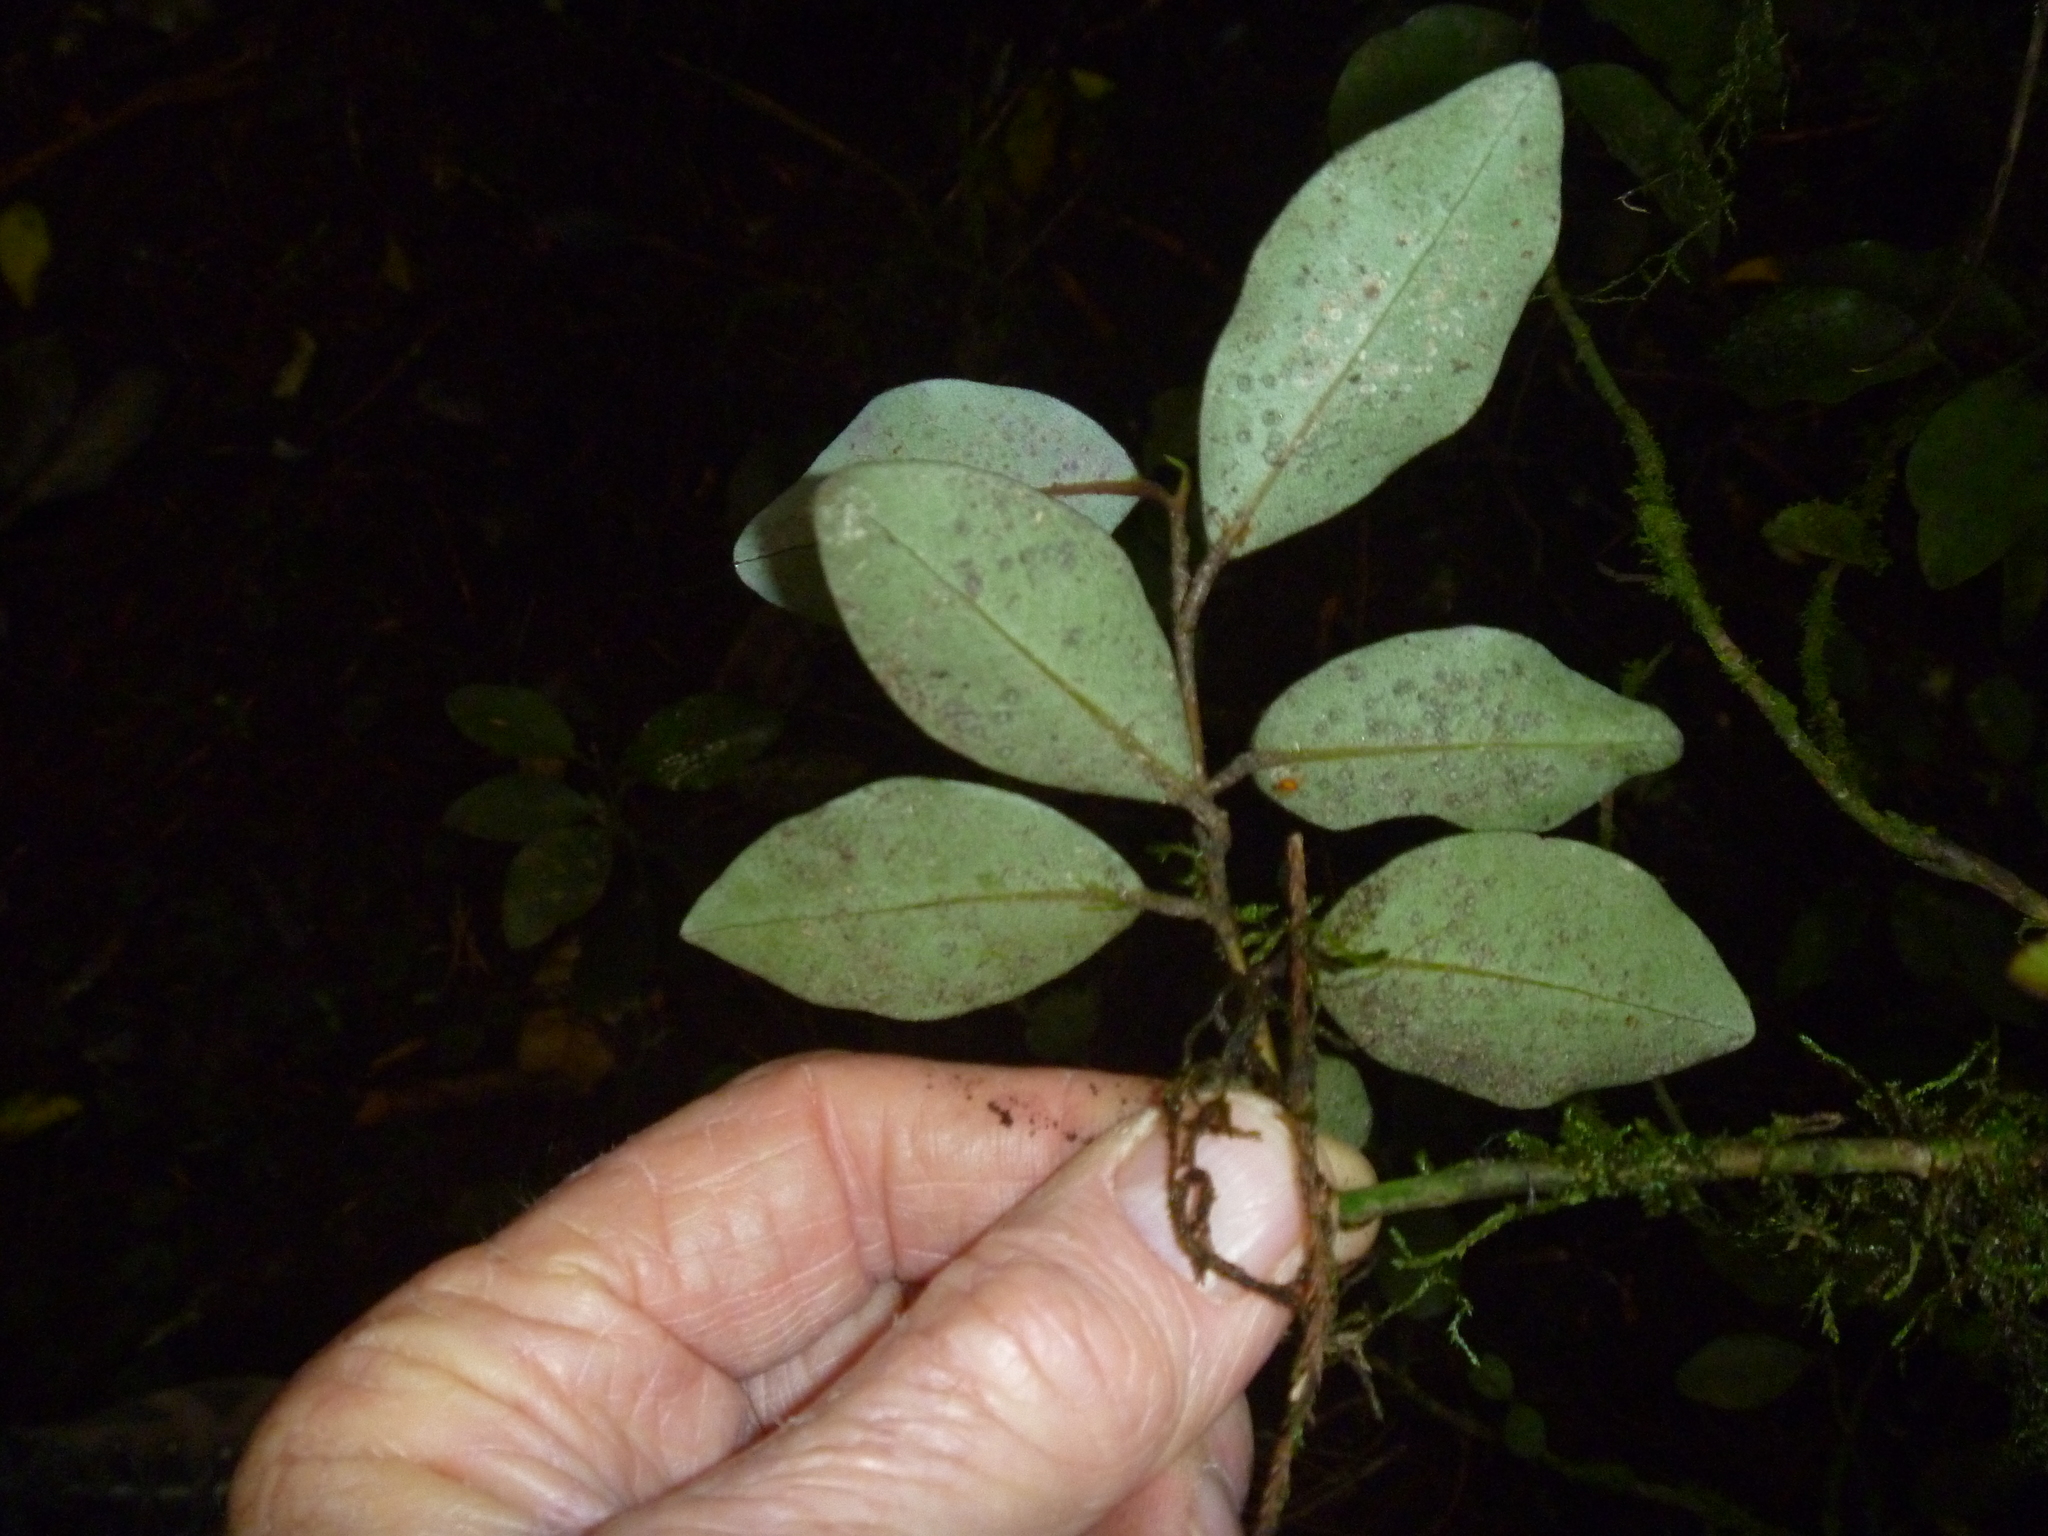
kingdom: Plantae
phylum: Tracheophyta
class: Magnoliopsida
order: Canellales
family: Winteraceae
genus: Pseudowintera
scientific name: Pseudowintera axillaris
